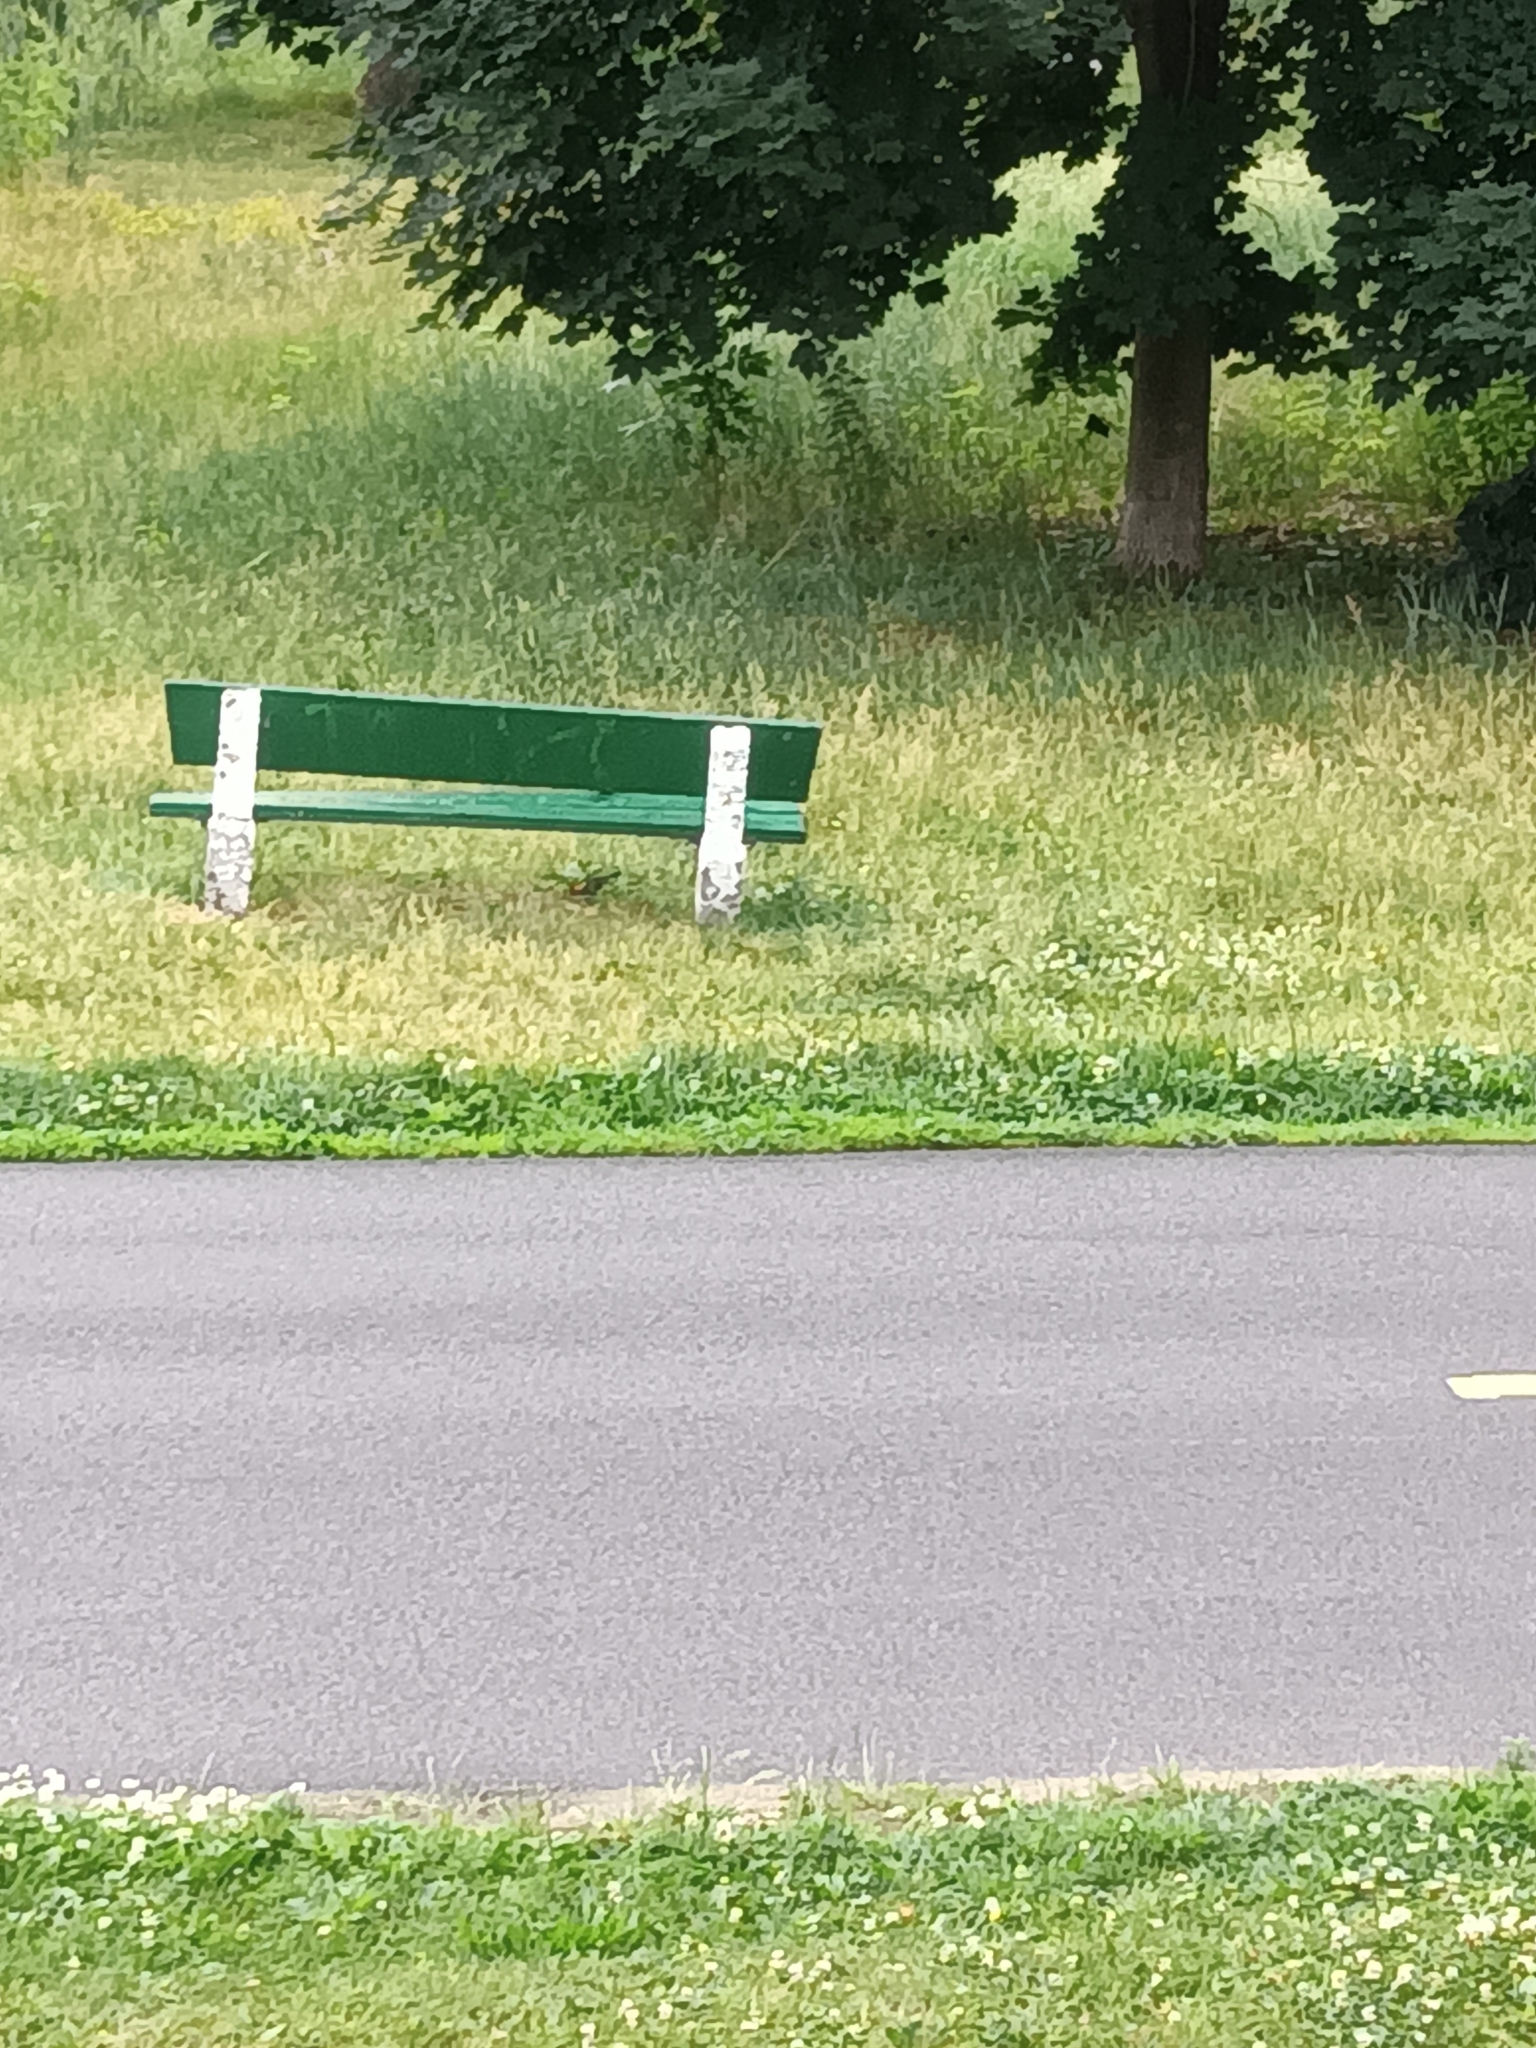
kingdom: Animalia
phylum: Chordata
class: Aves
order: Passeriformes
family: Icteridae
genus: Agelaius
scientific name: Agelaius phoeniceus
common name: Red-winged blackbird
